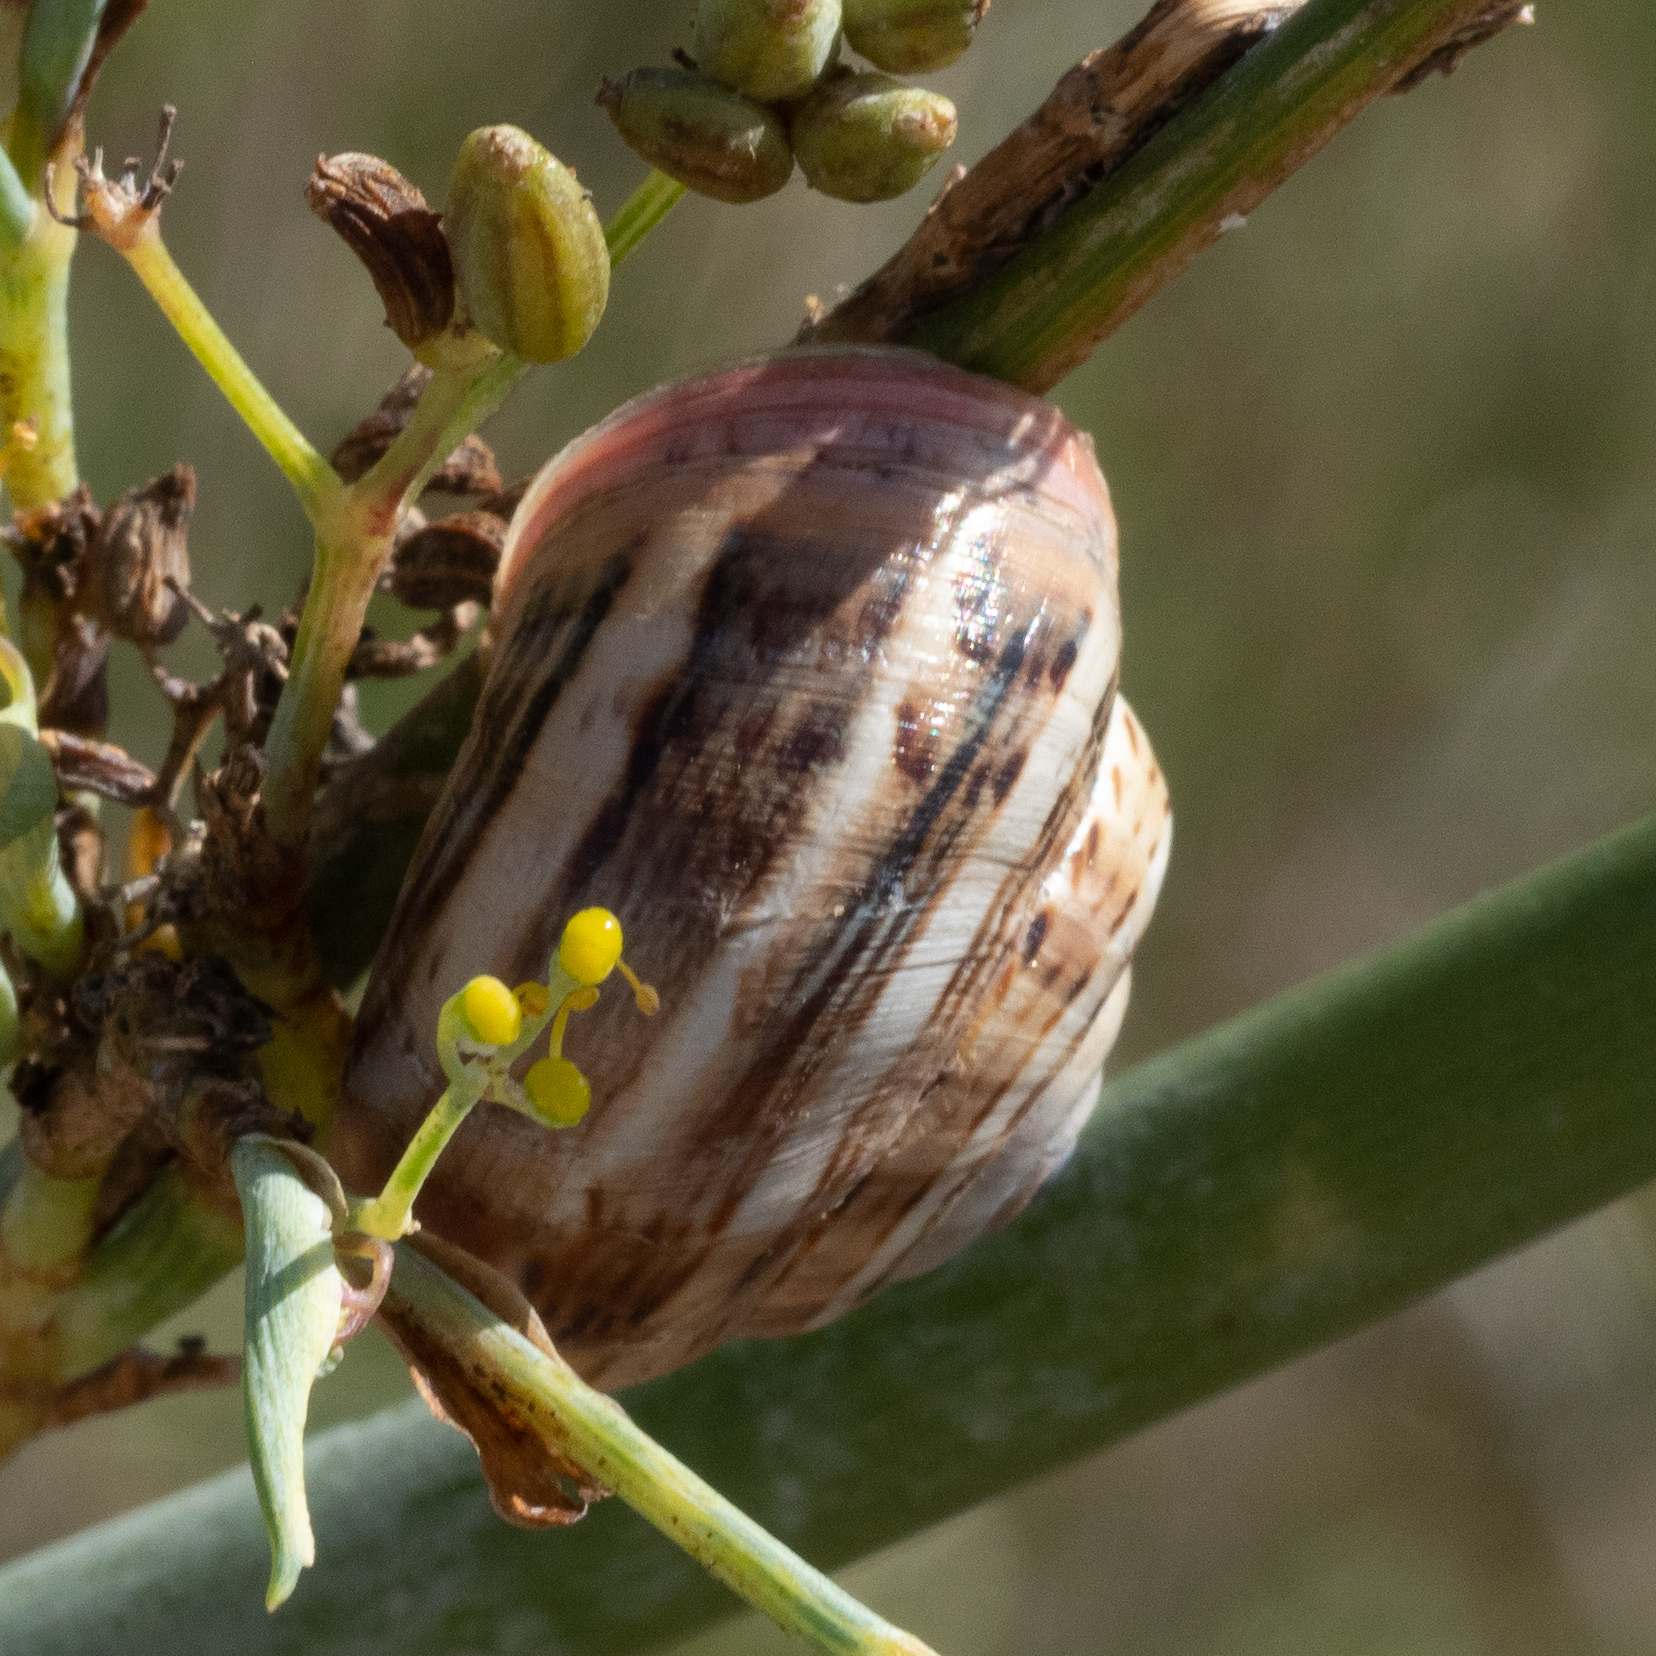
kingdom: Animalia
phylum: Mollusca
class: Gastropoda
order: Stylommatophora
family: Helicidae
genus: Theba
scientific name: Theba pisana
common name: White snail
